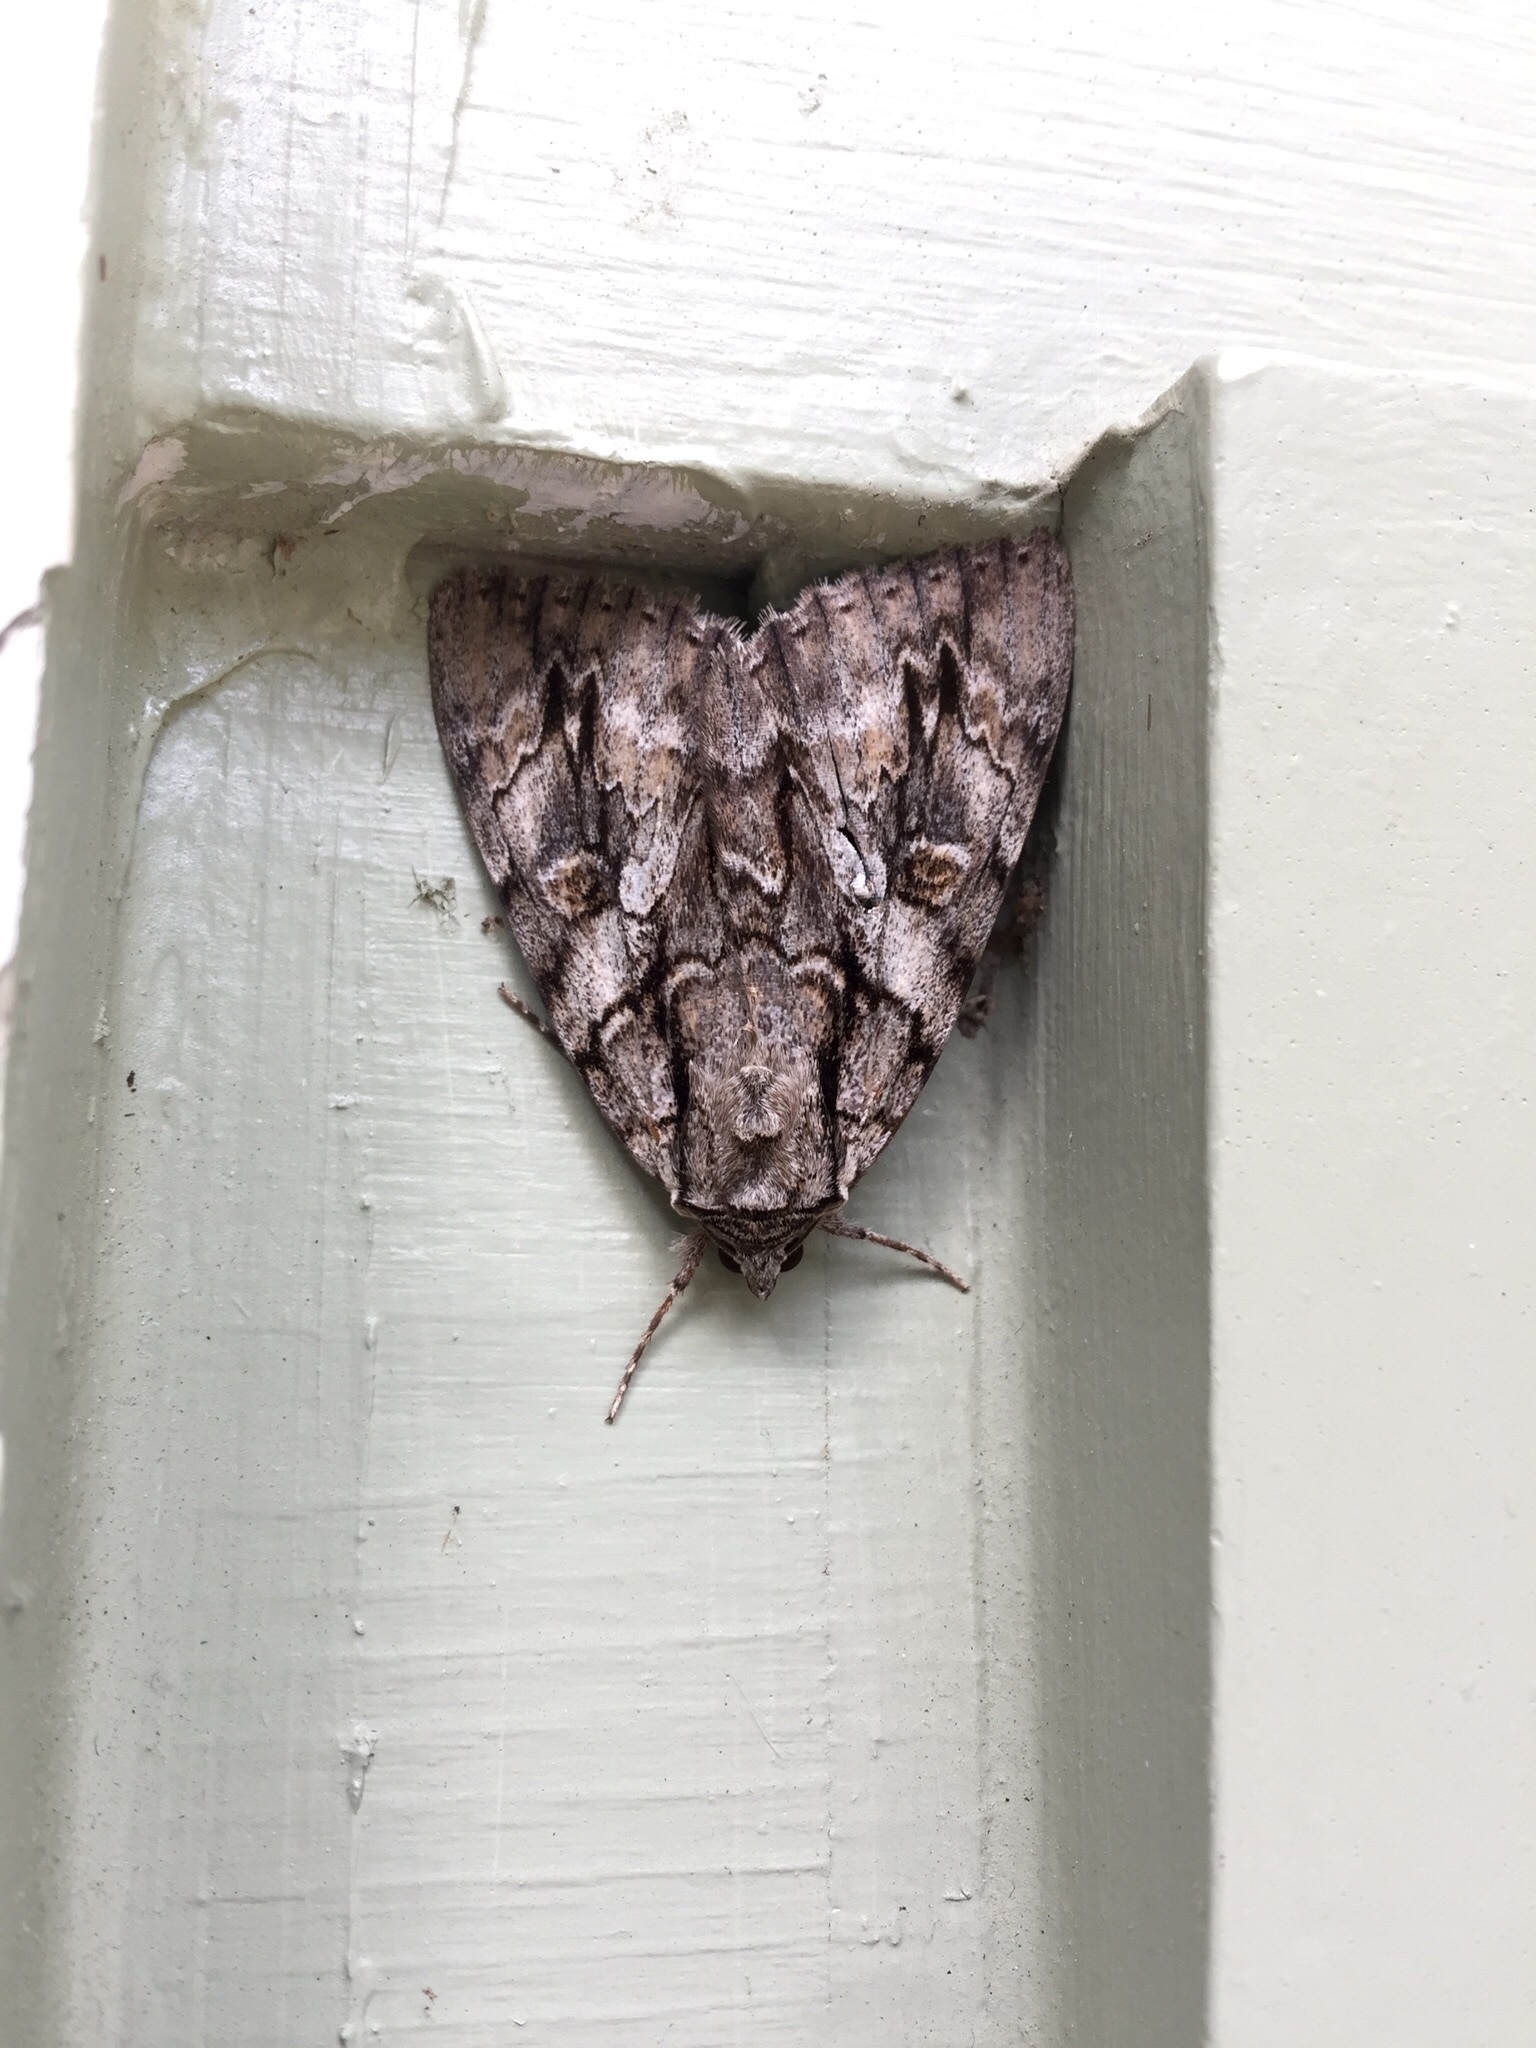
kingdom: Animalia
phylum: Arthropoda
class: Insecta
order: Lepidoptera
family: Erebidae
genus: Catocala
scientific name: Catocala retecta
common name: Yellow-gray underwing
